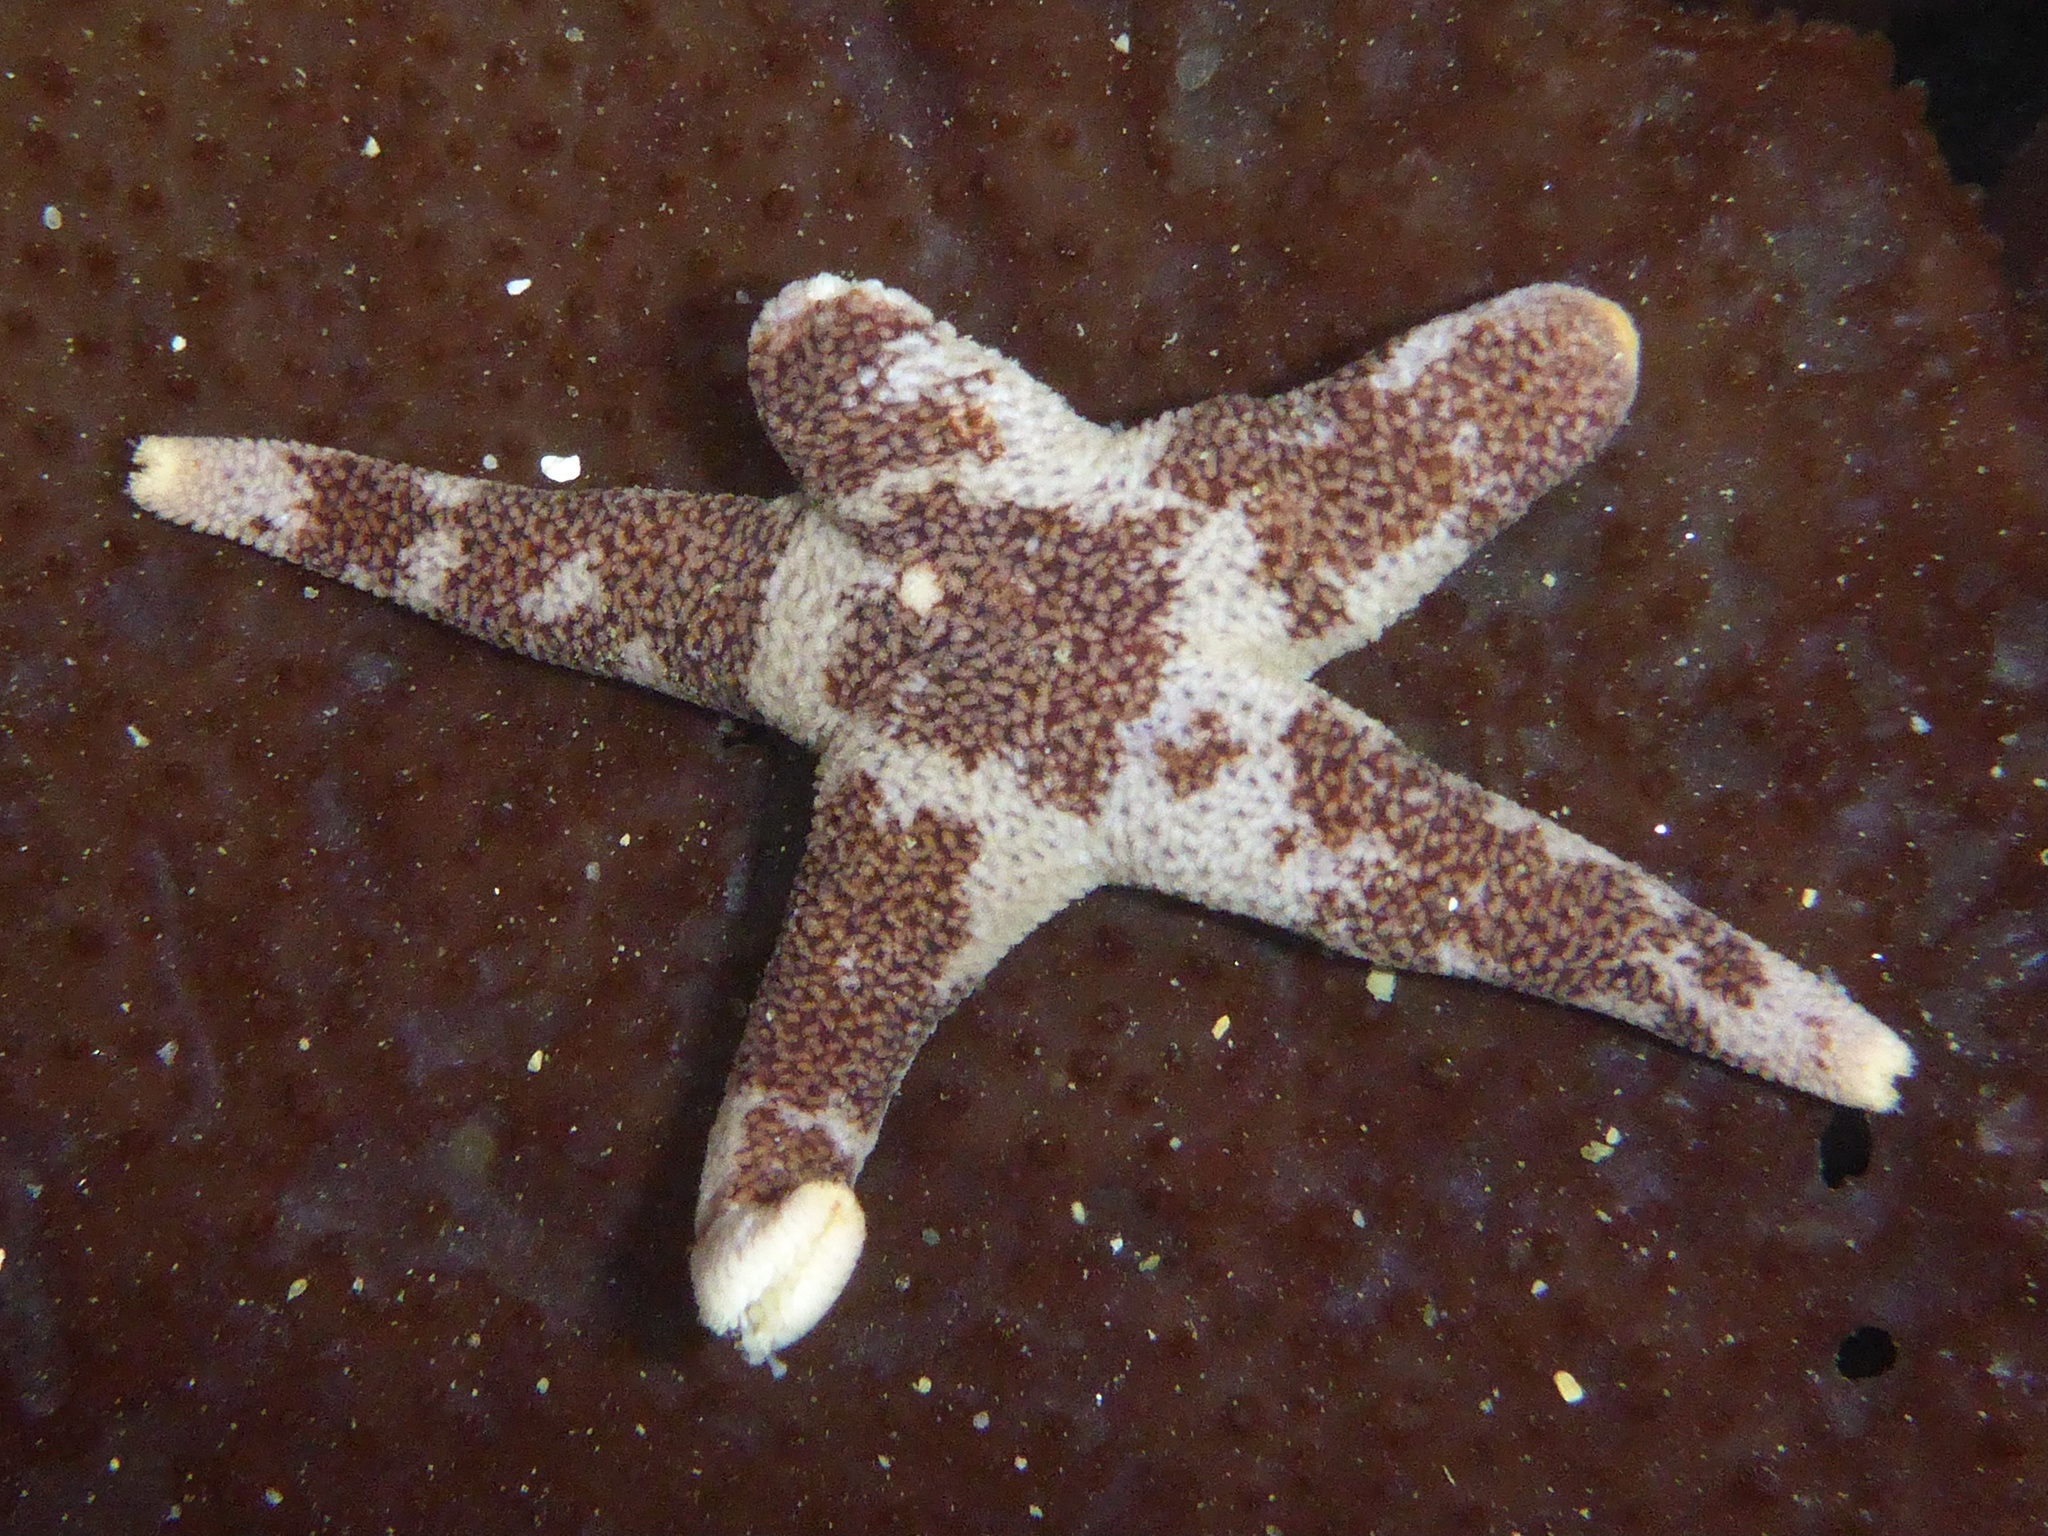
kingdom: Animalia
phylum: Echinodermata
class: Asteroidea
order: Spinulosida
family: Echinasteridae
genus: Henricia
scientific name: Henricia pumila
